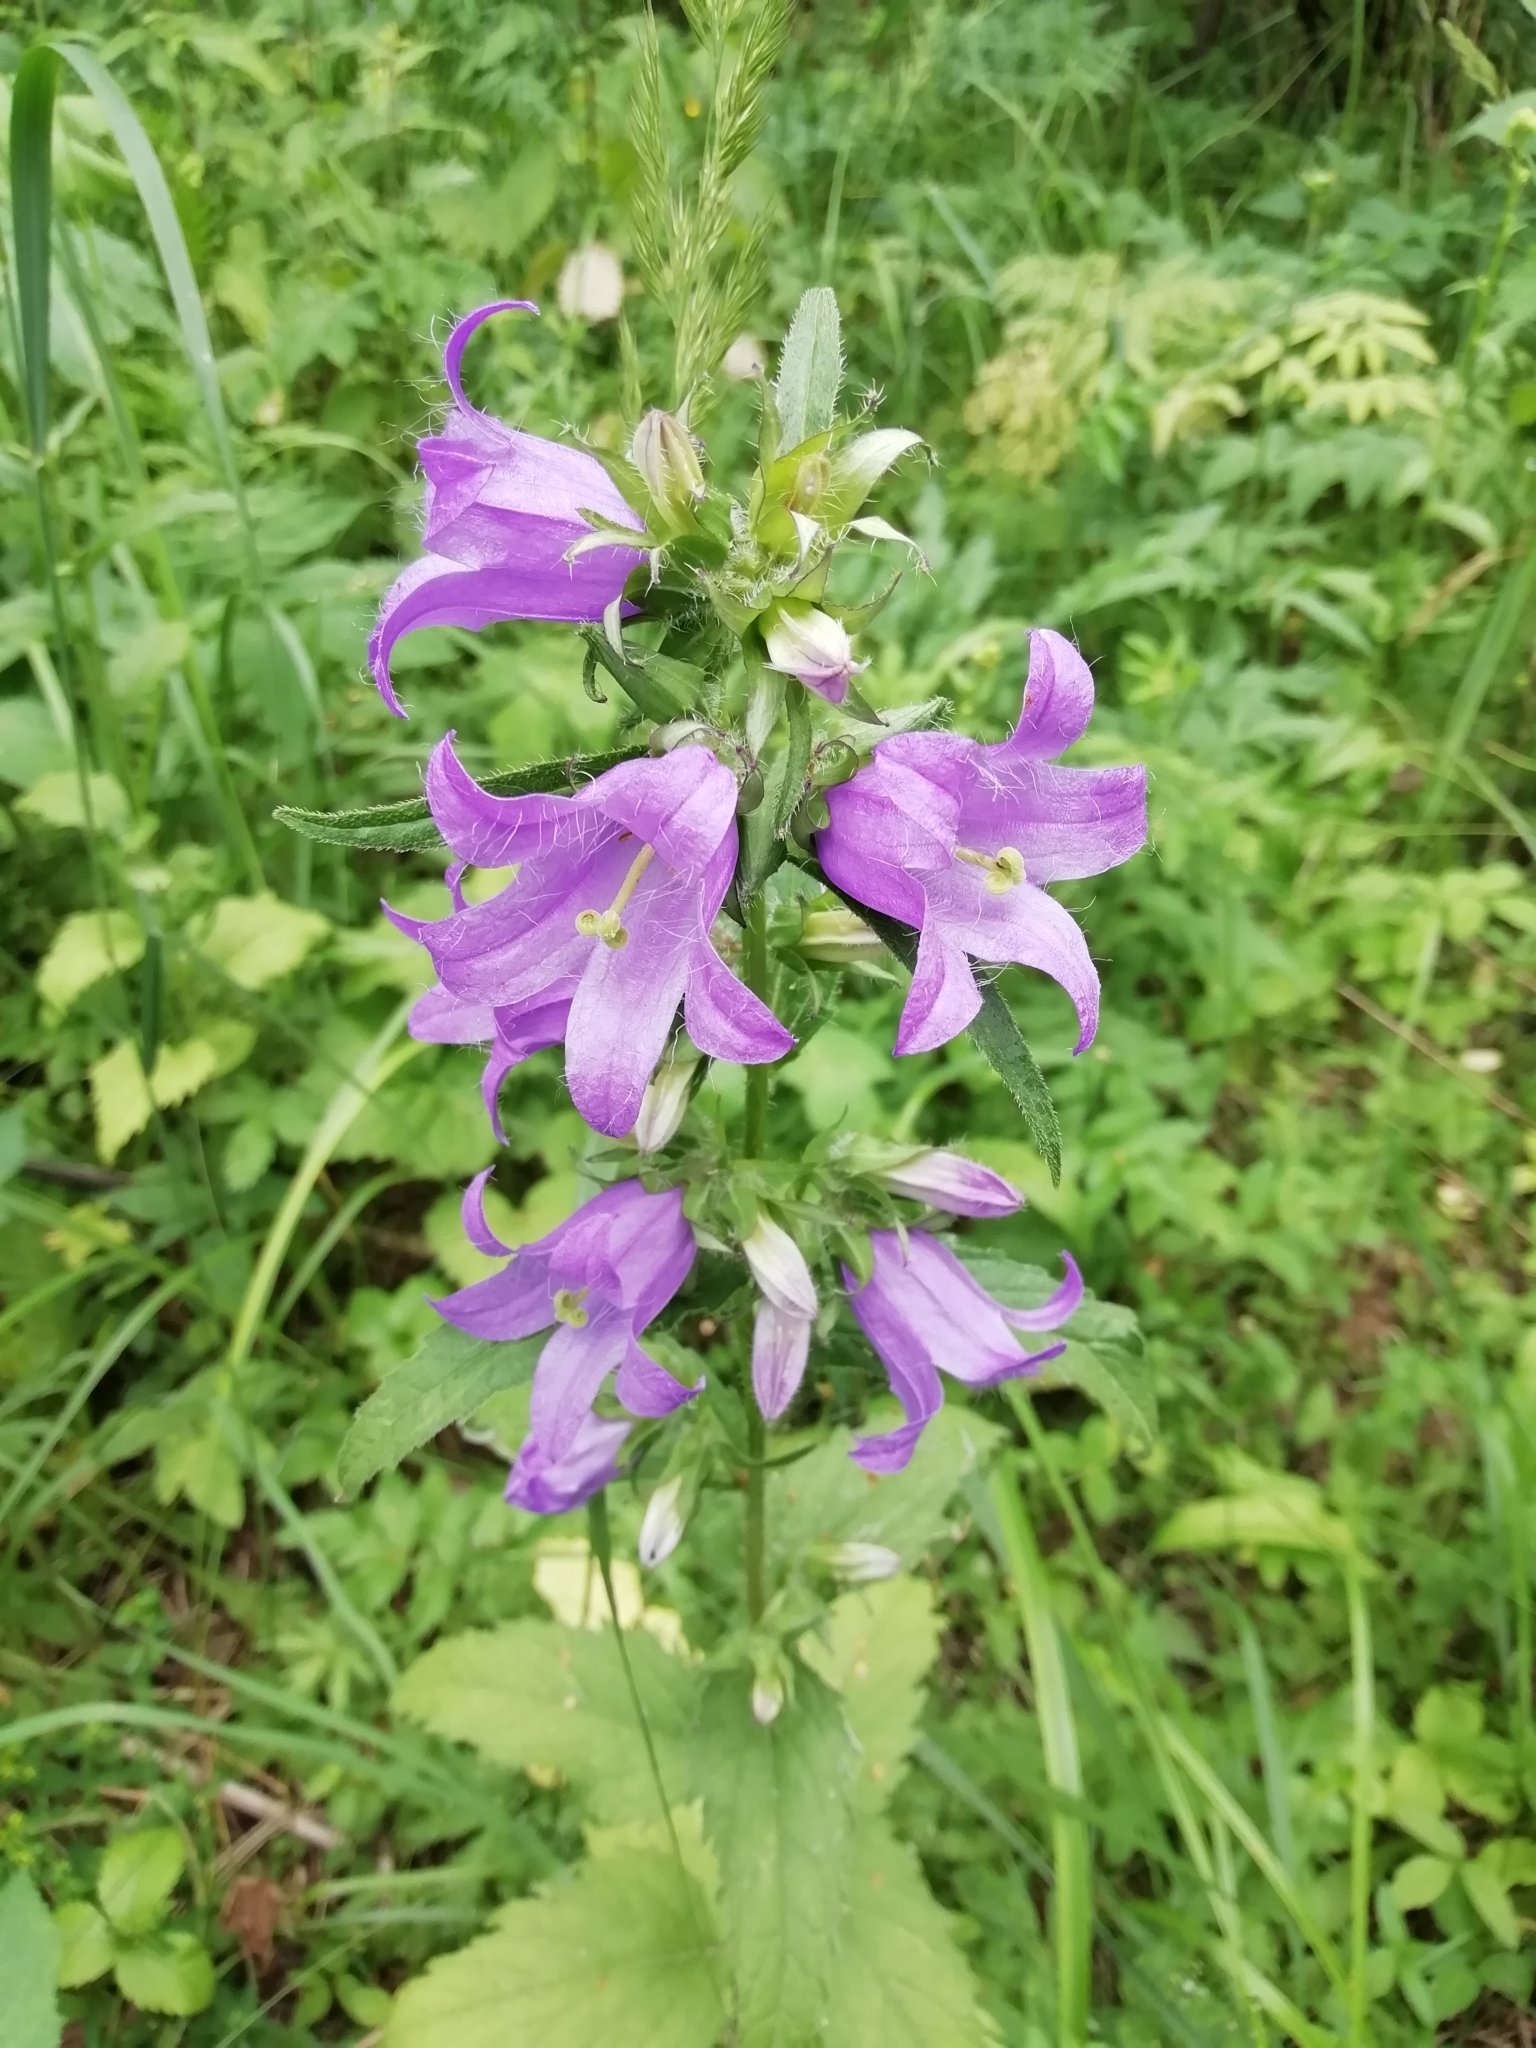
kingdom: Plantae
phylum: Tracheophyta
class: Magnoliopsida
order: Asterales
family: Campanulaceae
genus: Campanula
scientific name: Campanula trachelium
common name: Nettle-leaved bellflower
